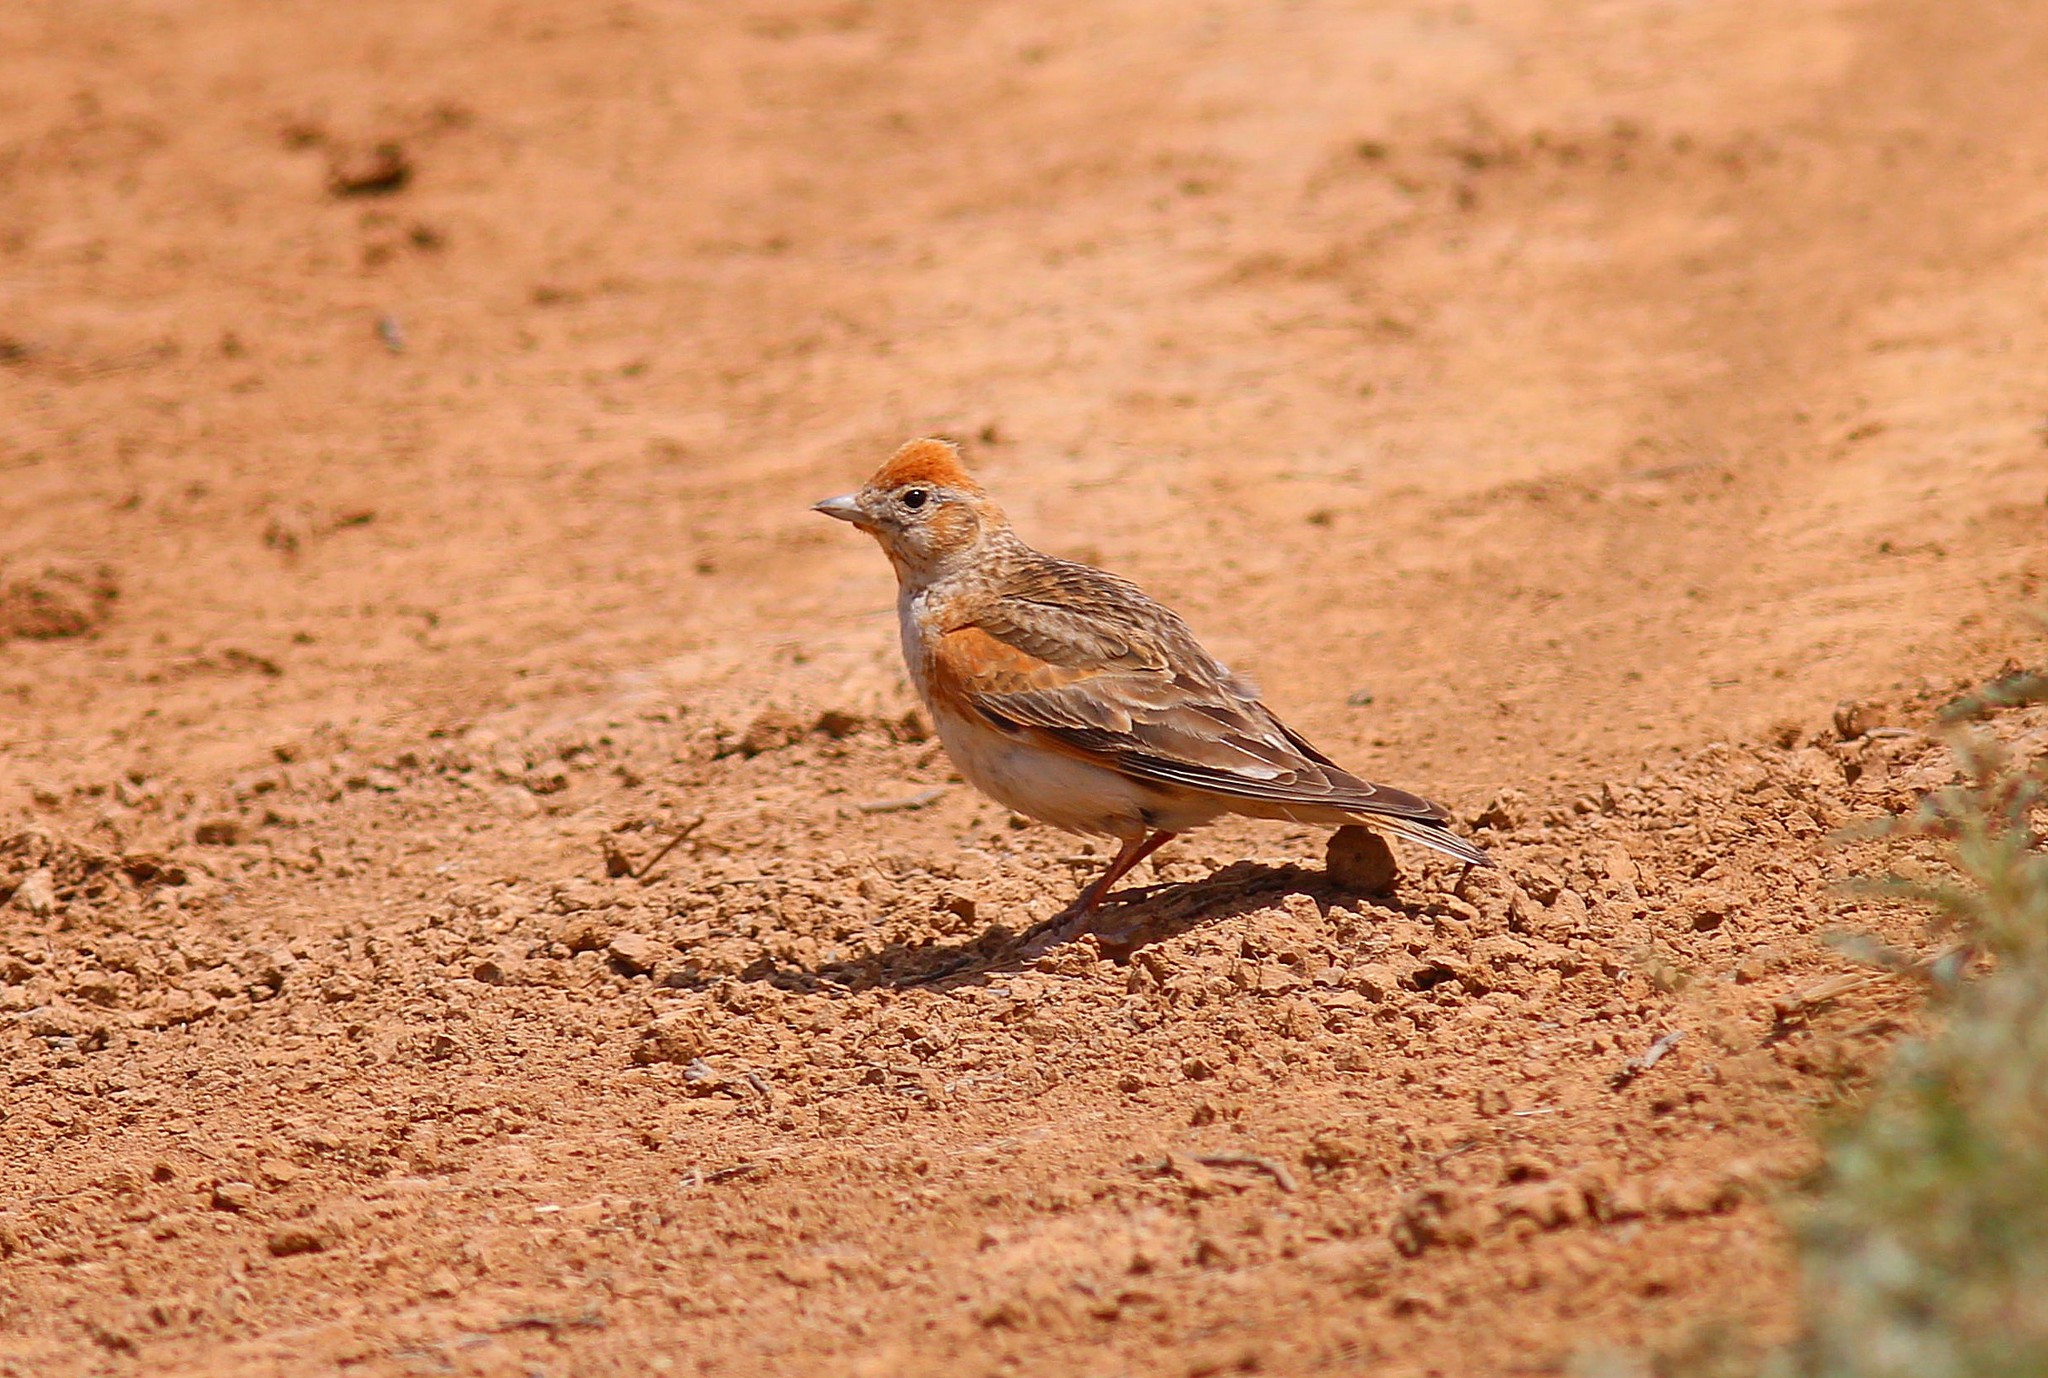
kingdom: Animalia
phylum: Chordata
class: Aves
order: Passeriformes
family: Alaudidae
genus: Melanocorypha
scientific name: Melanocorypha leucoptera
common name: White-winged lark
